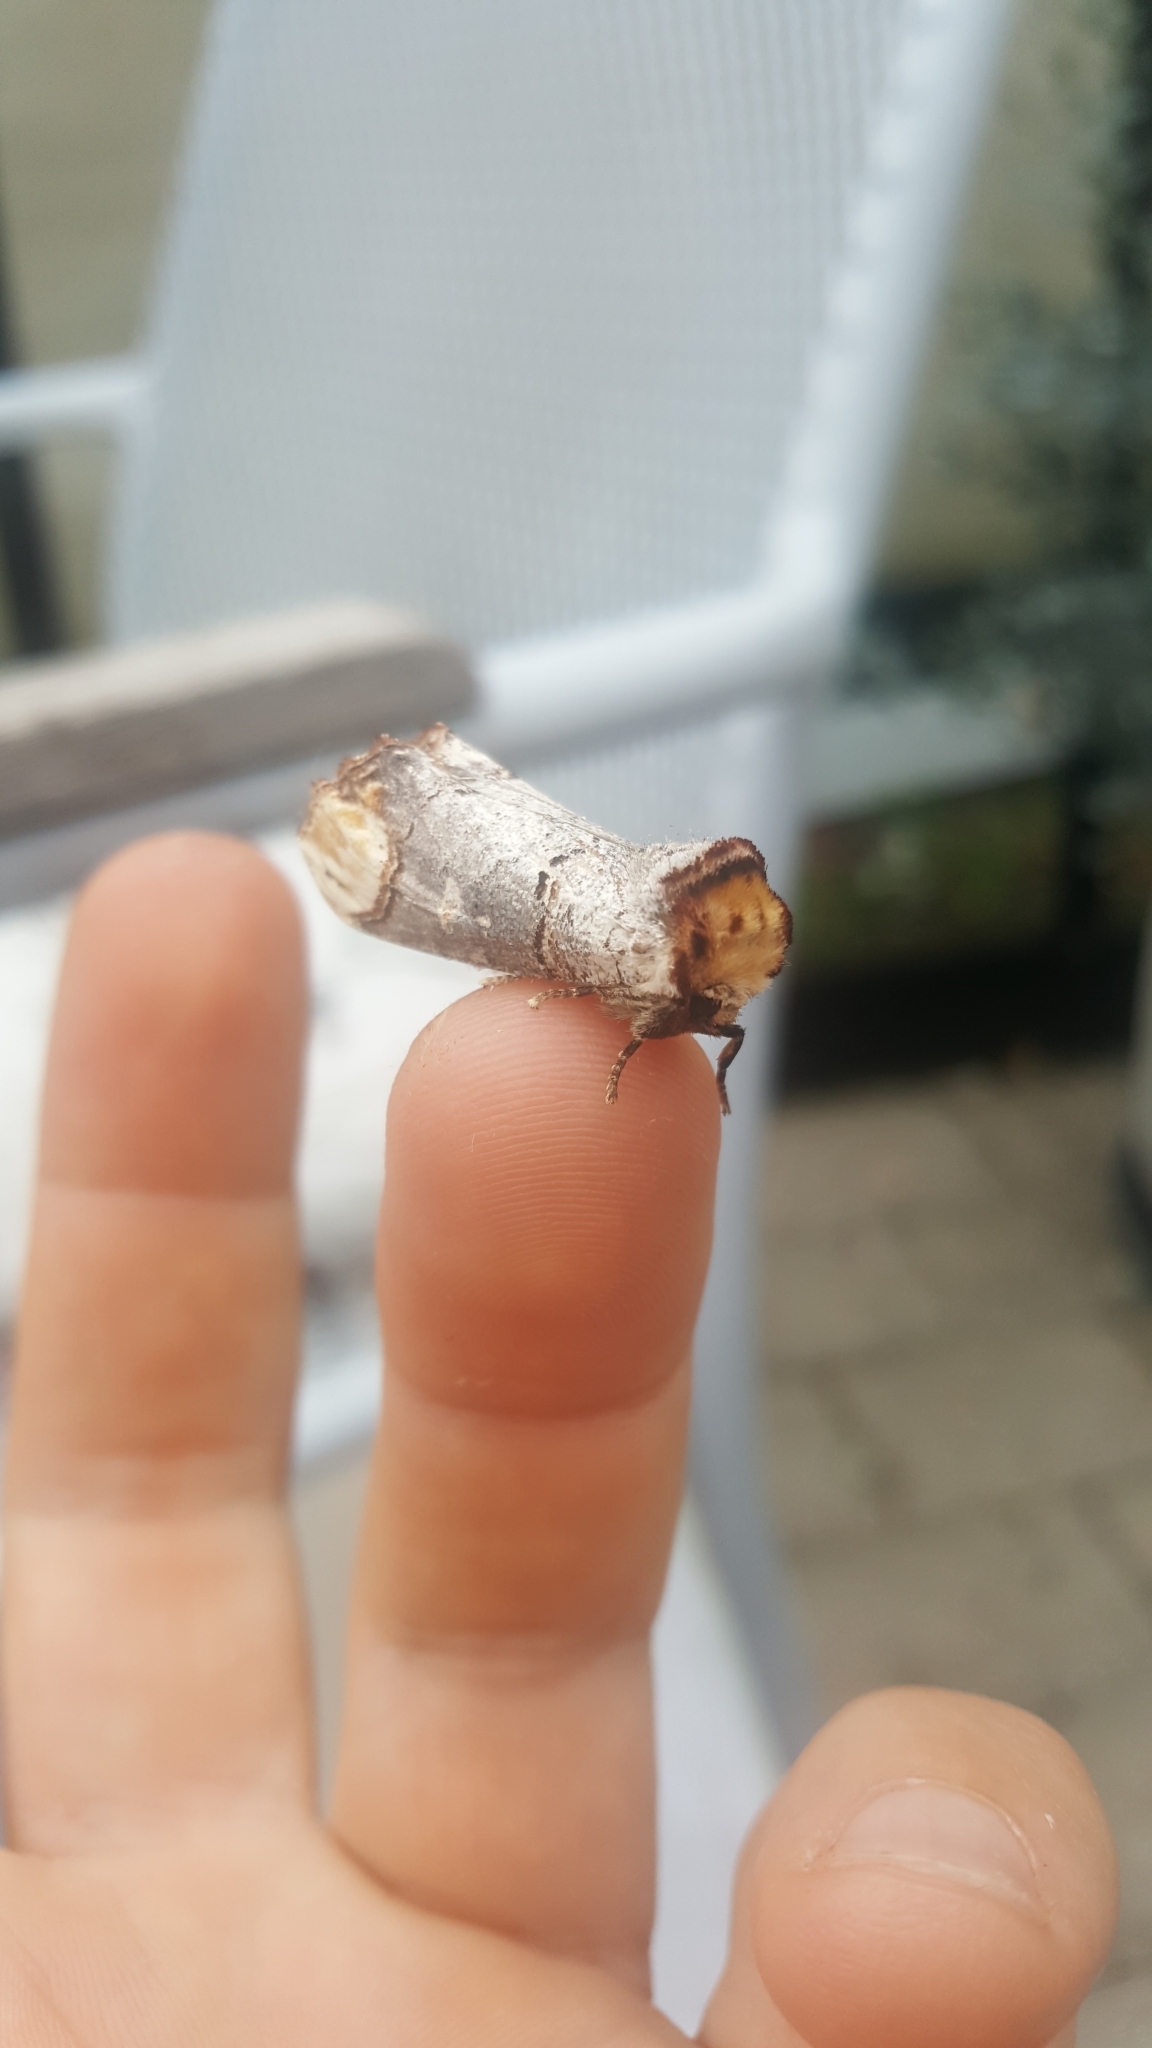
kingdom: Animalia
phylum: Arthropoda
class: Insecta
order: Lepidoptera
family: Notodontidae
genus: Phalera
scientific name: Phalera bucephala
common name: Buff-tip
